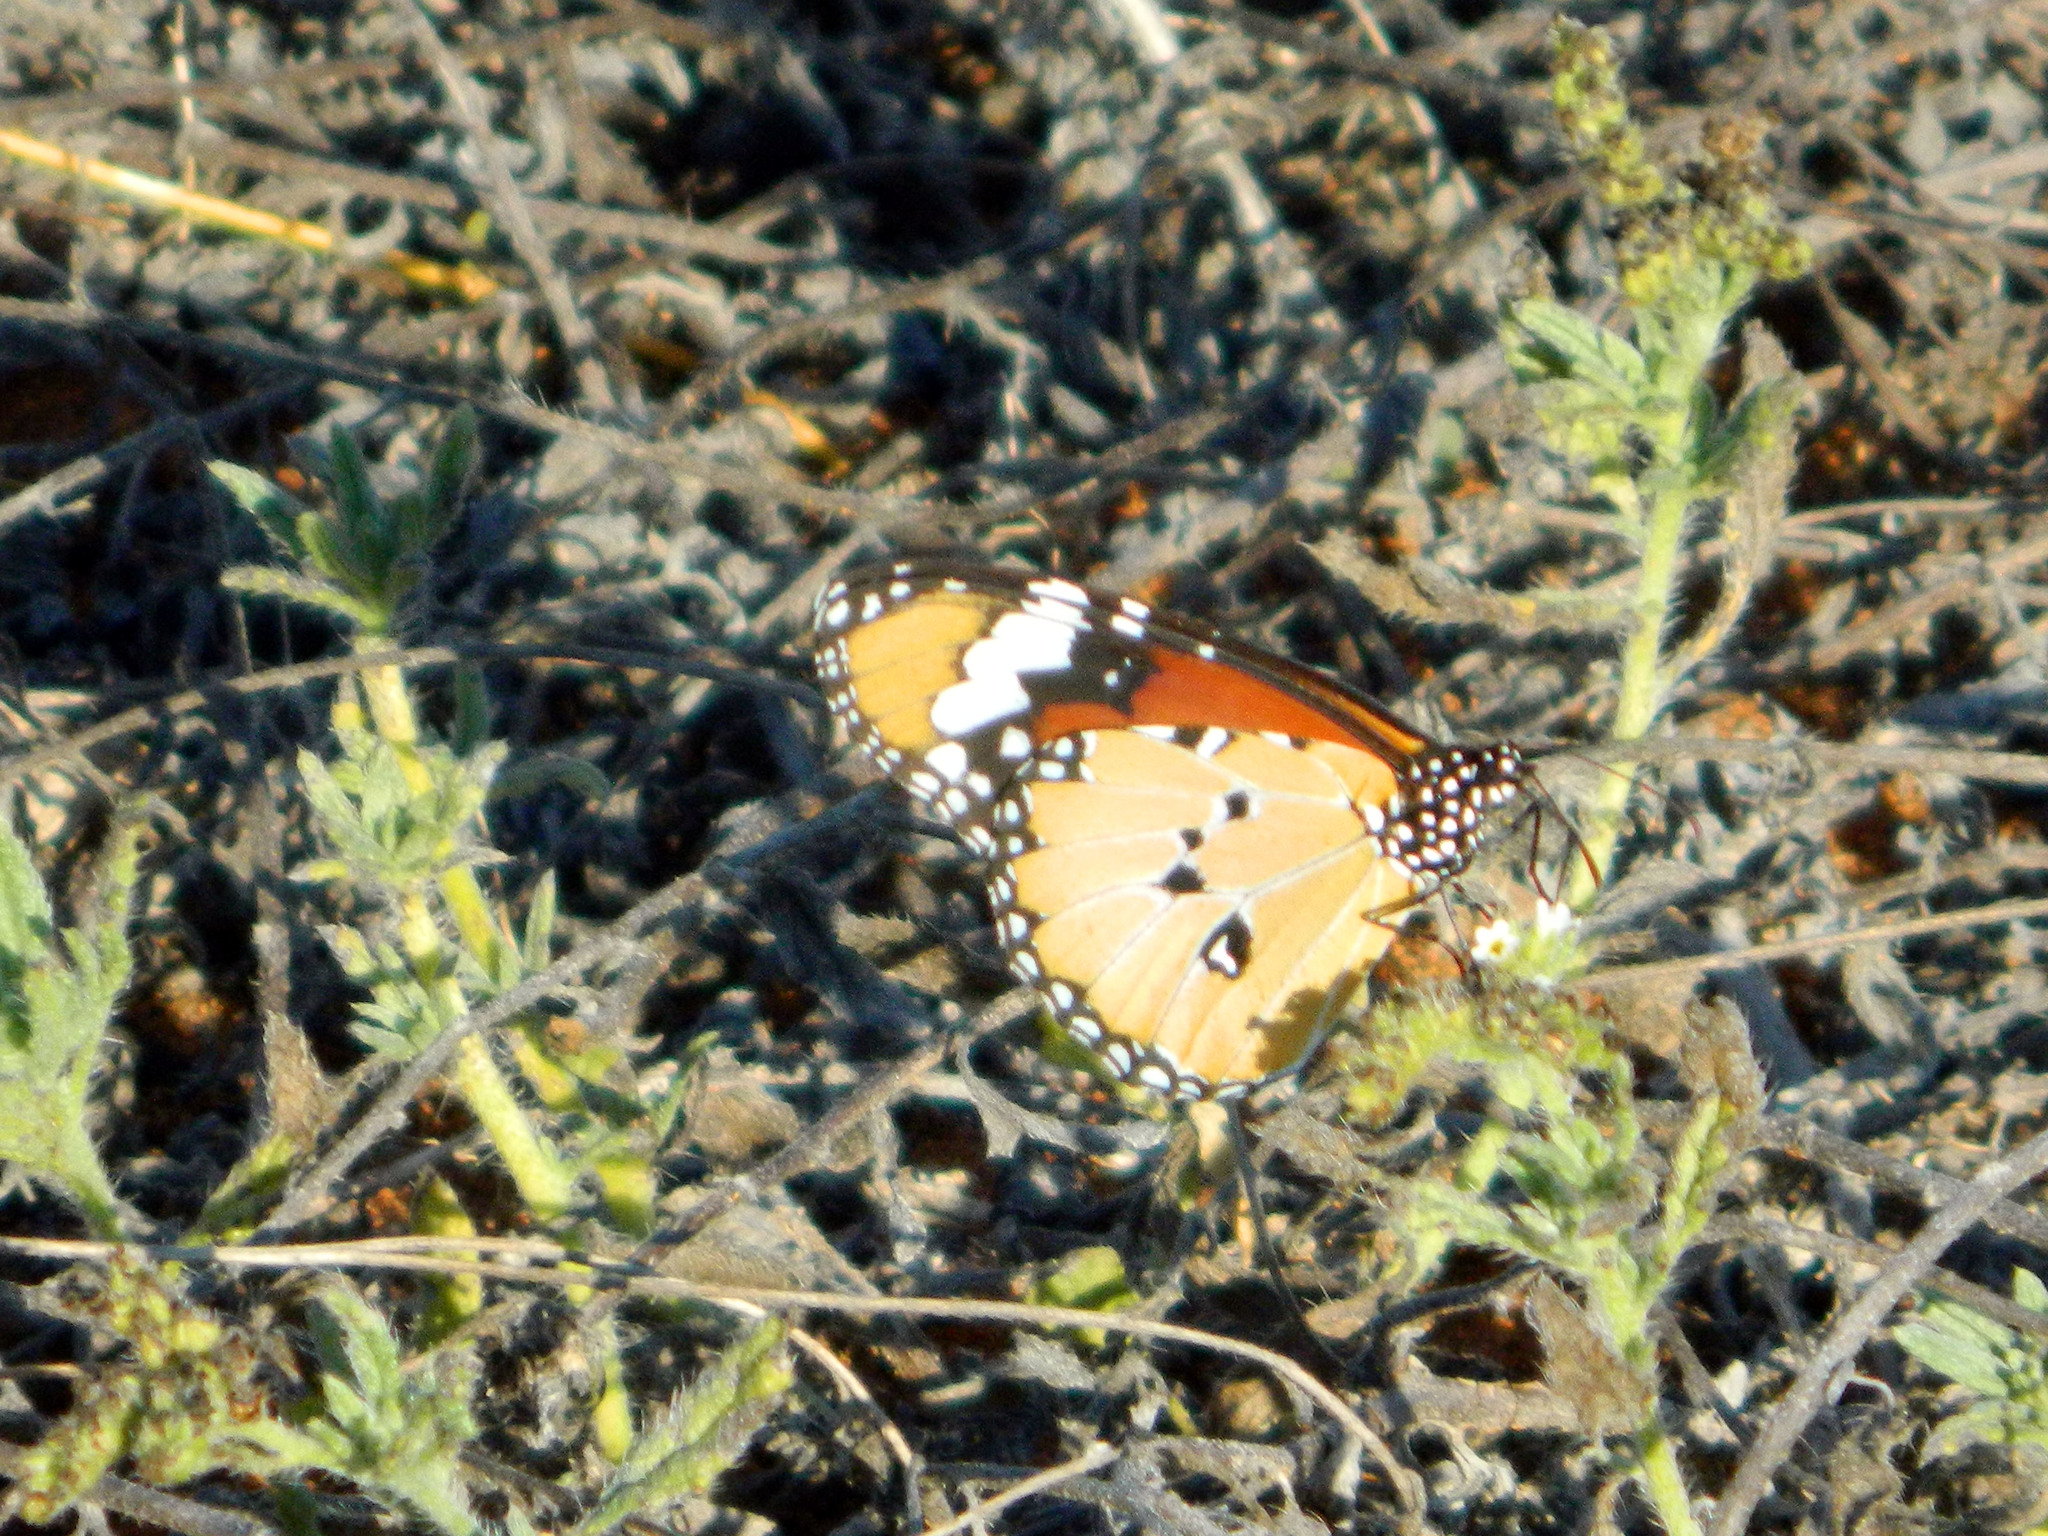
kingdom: Animalia
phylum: Arthropoda
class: Insecta
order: Lepidoptera
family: Nymphalidae
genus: Danaus
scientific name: Danaus chrysippus
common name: Plain tiger
